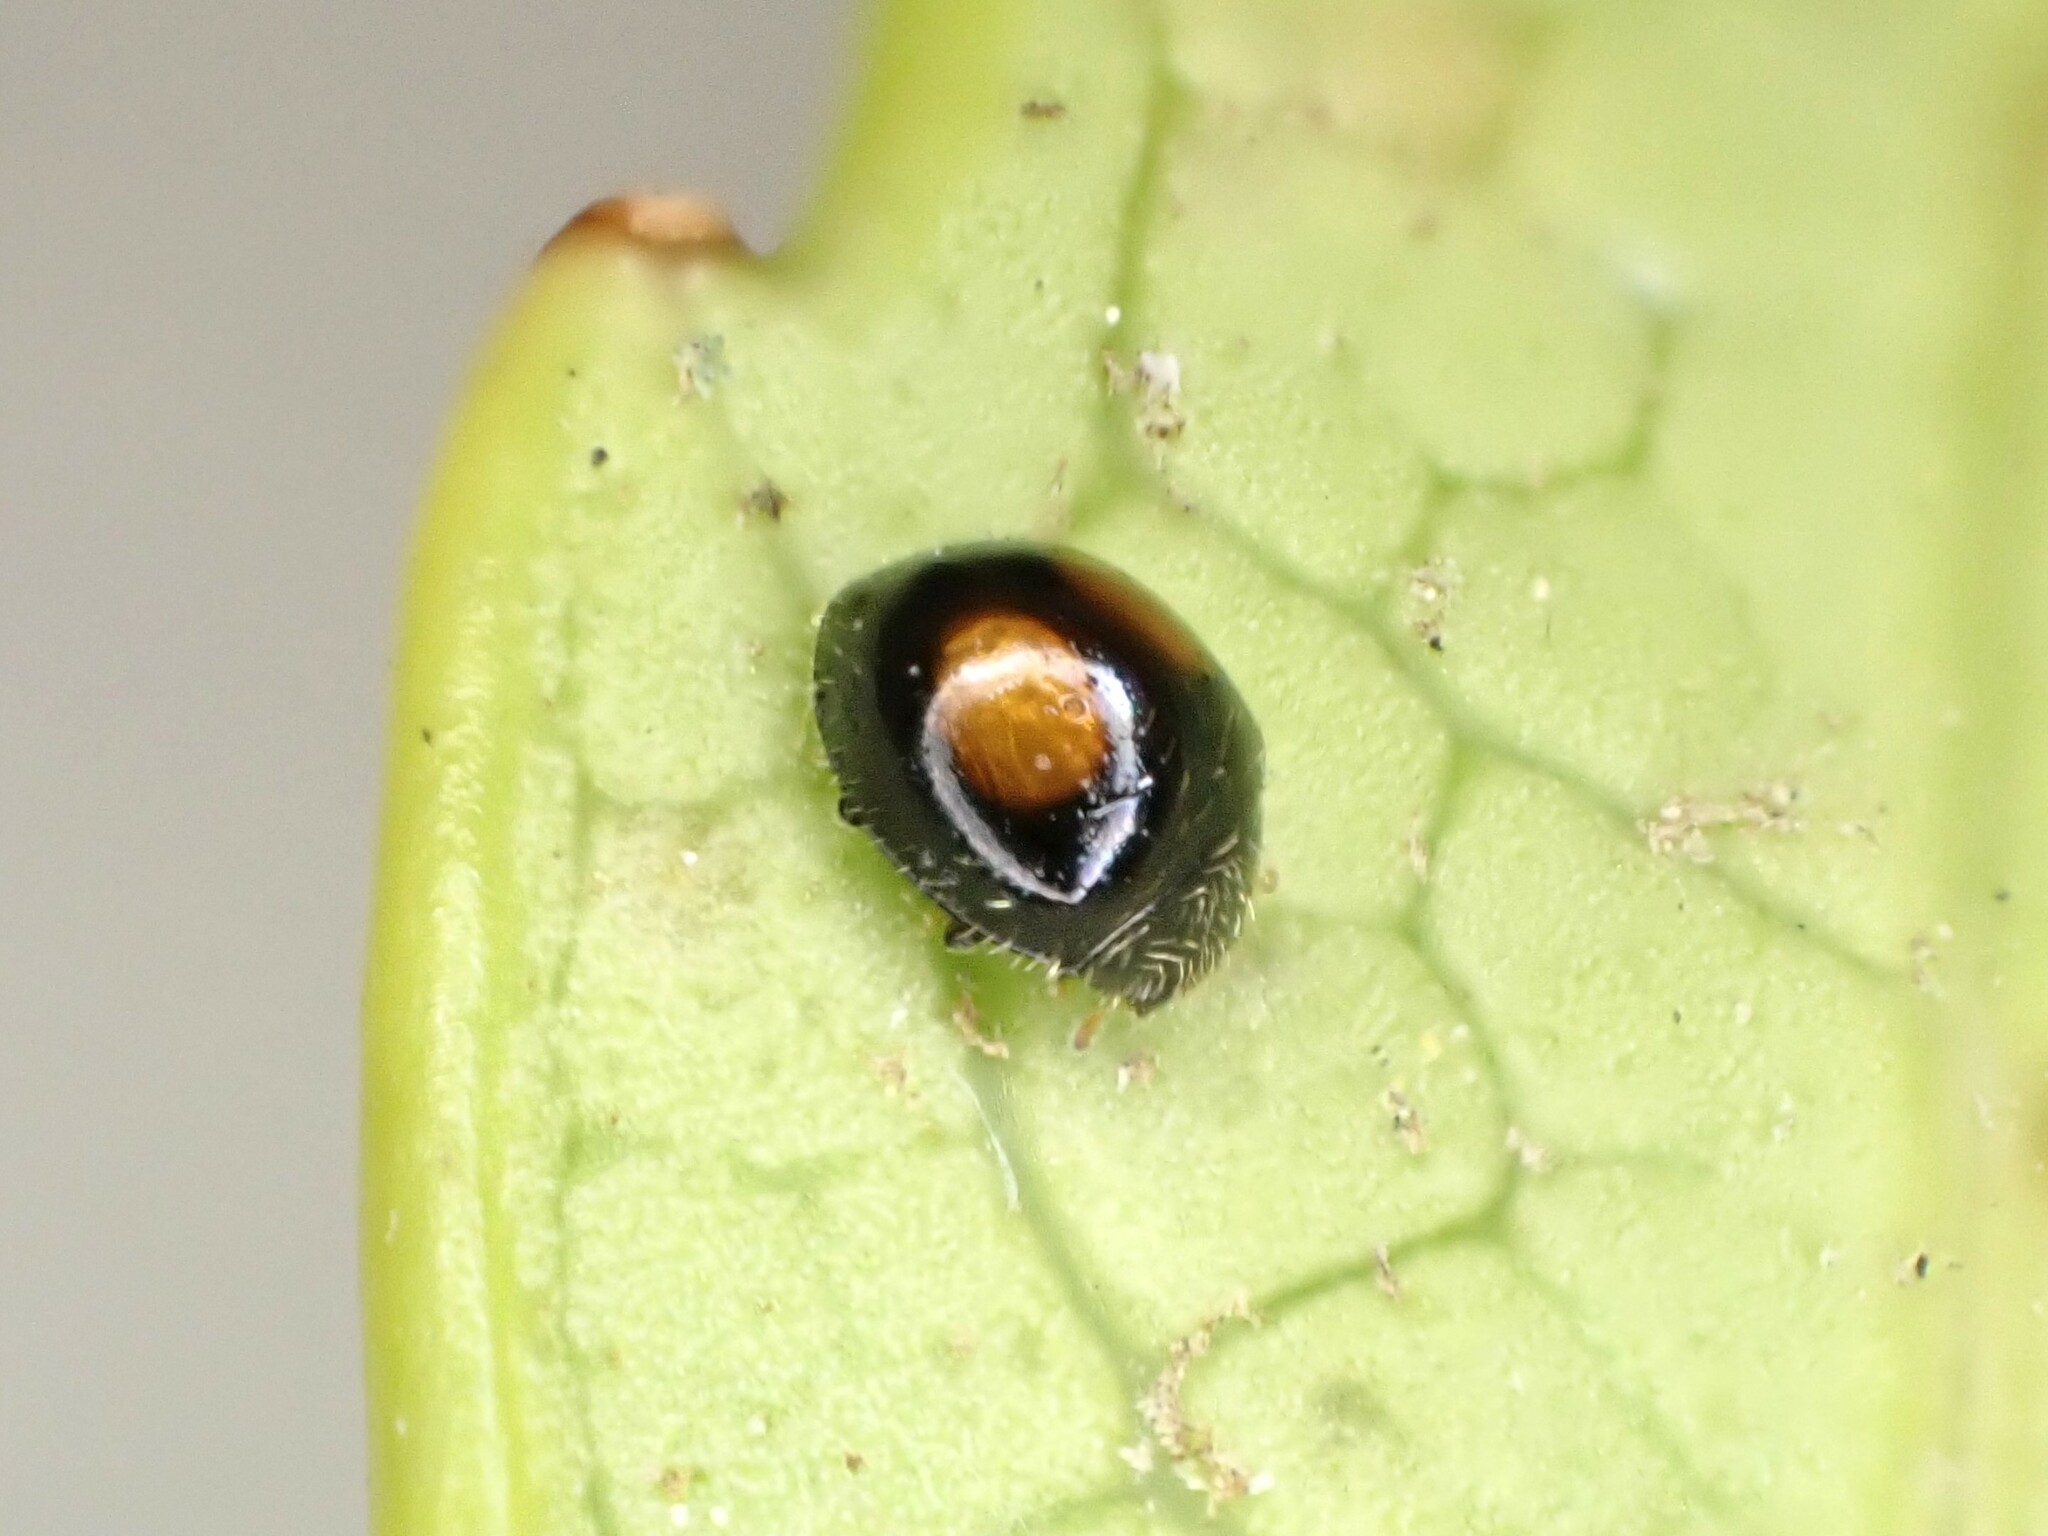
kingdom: Animalia
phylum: Arthropoda
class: Insecta
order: Coleoptera
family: Coccinellidae
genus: Serangium
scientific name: Serangium maculigerum
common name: Lady beetle
